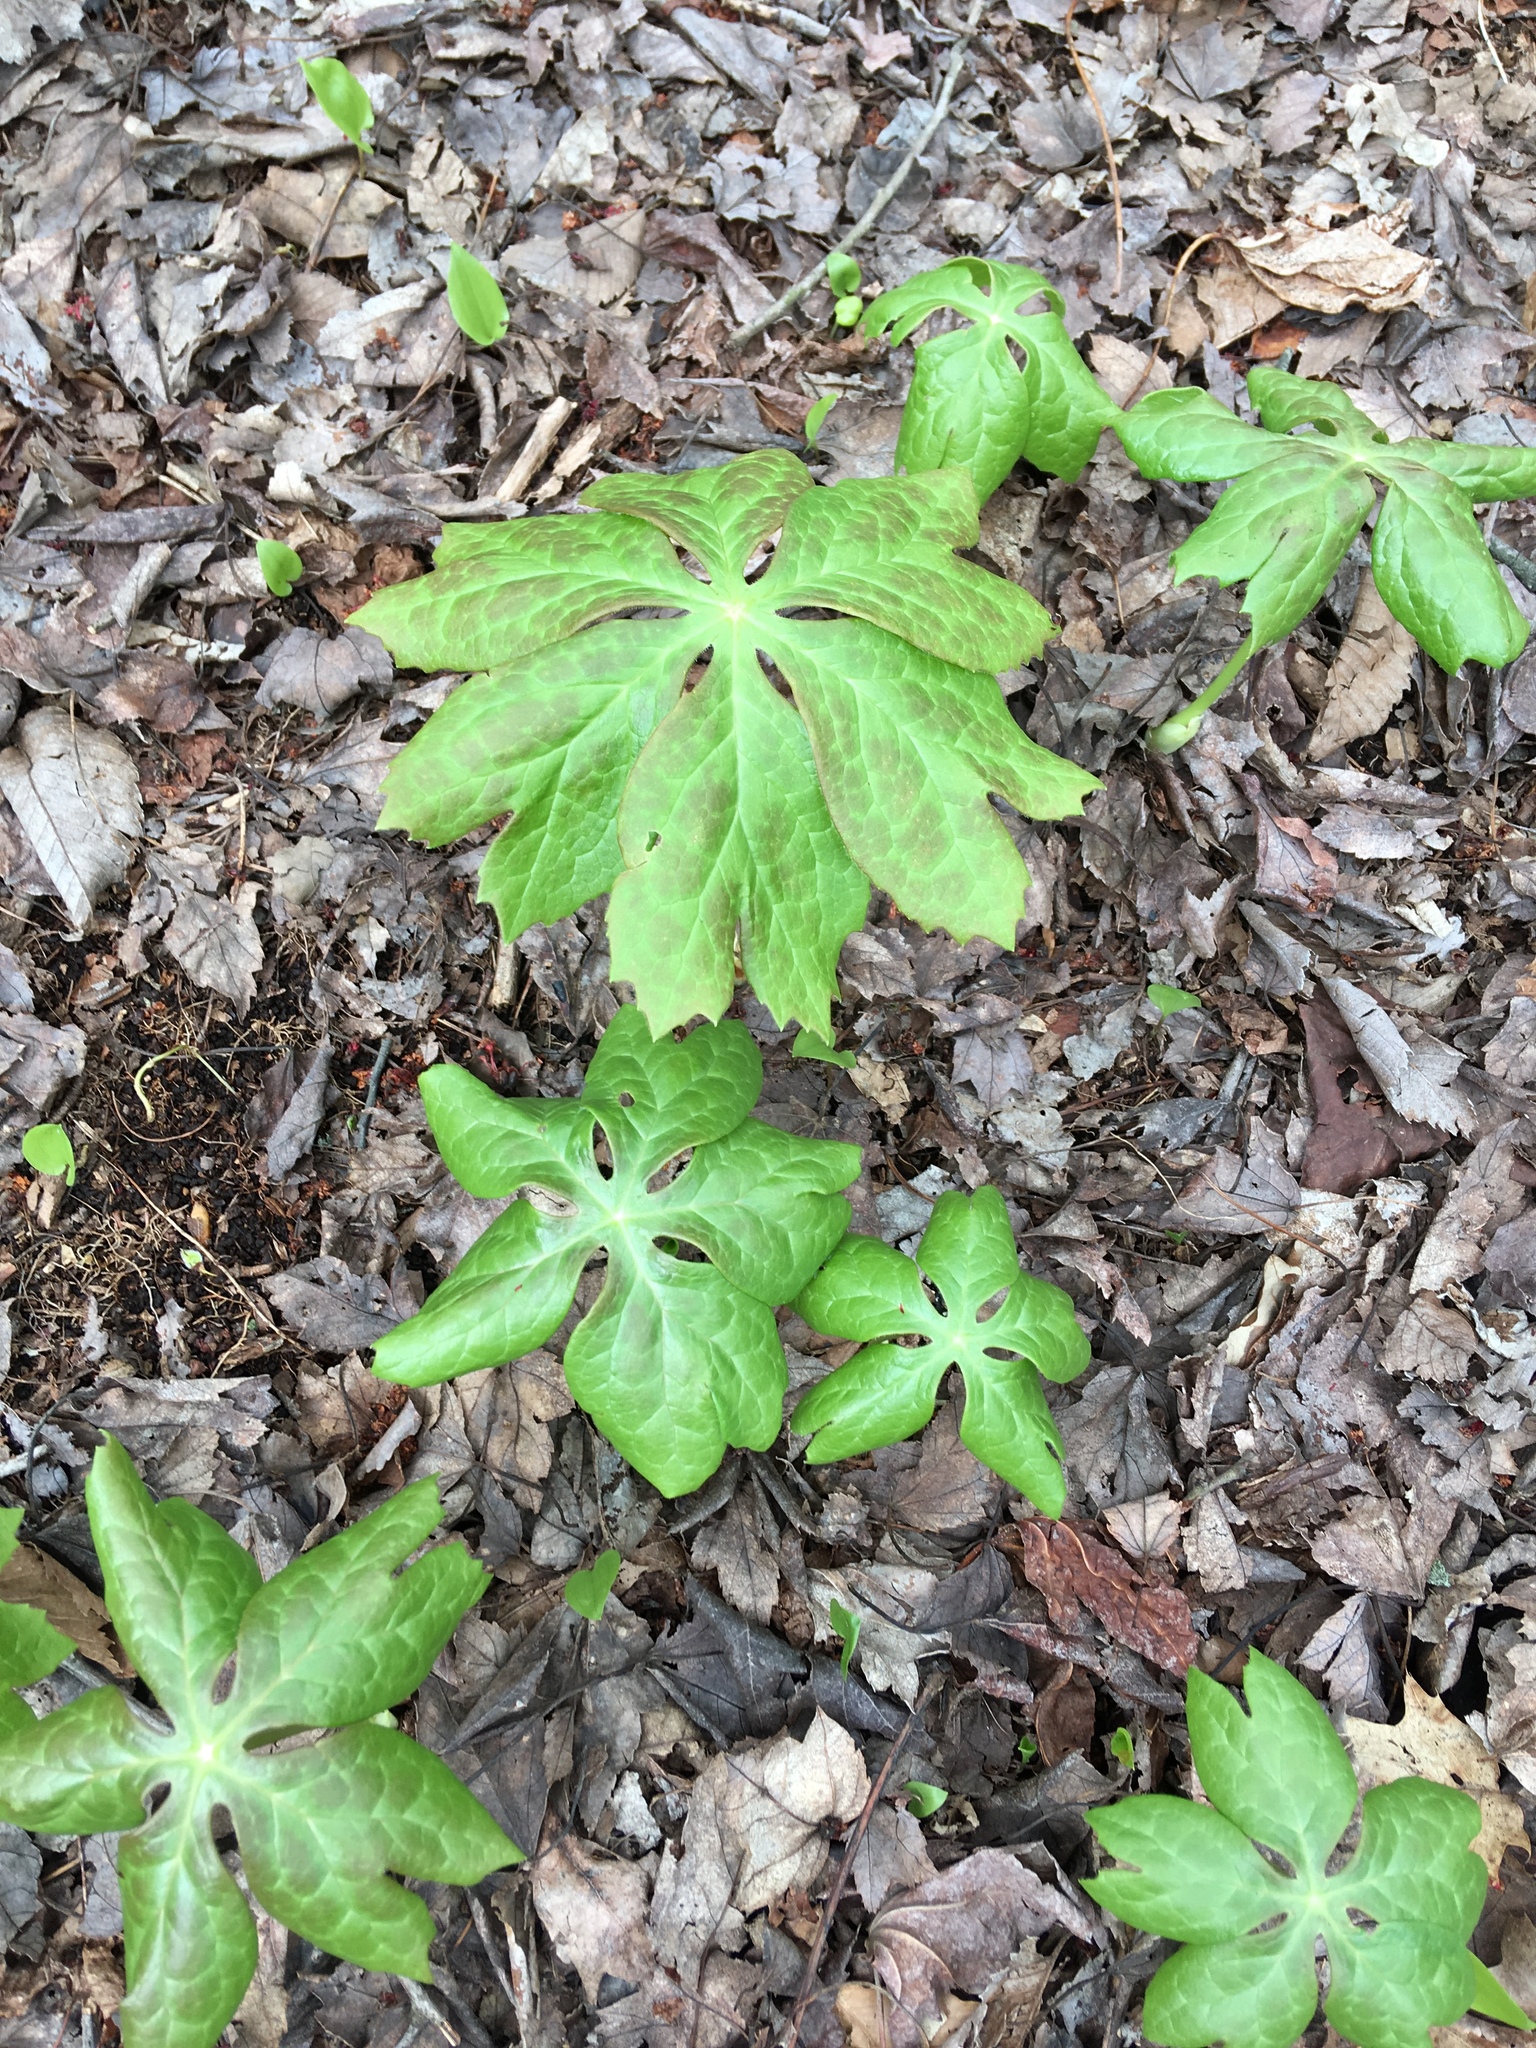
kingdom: Plantae
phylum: Tracheophyta
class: Magnoliopsida
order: Ranunculales
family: Berberidaceae
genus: Podophyllum
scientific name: Podophyllum peltatum
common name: Wild mandrake
